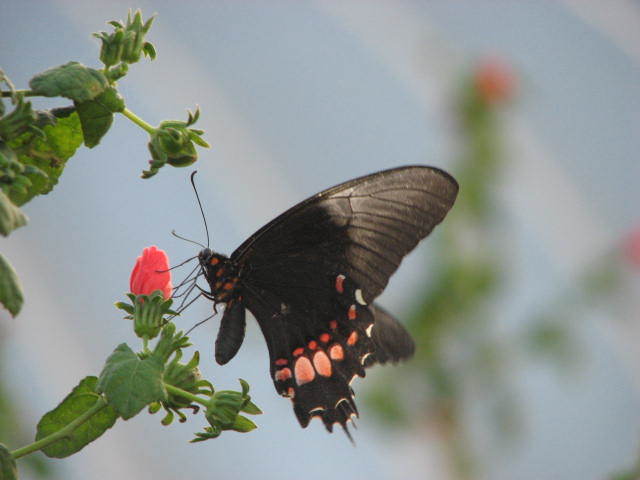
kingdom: Animalia
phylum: Arthropoda
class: Insecta
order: Lepidoptera
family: Papilionidae
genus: Papilio
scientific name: Papilio anchisiades
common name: Idaes swallowtail
